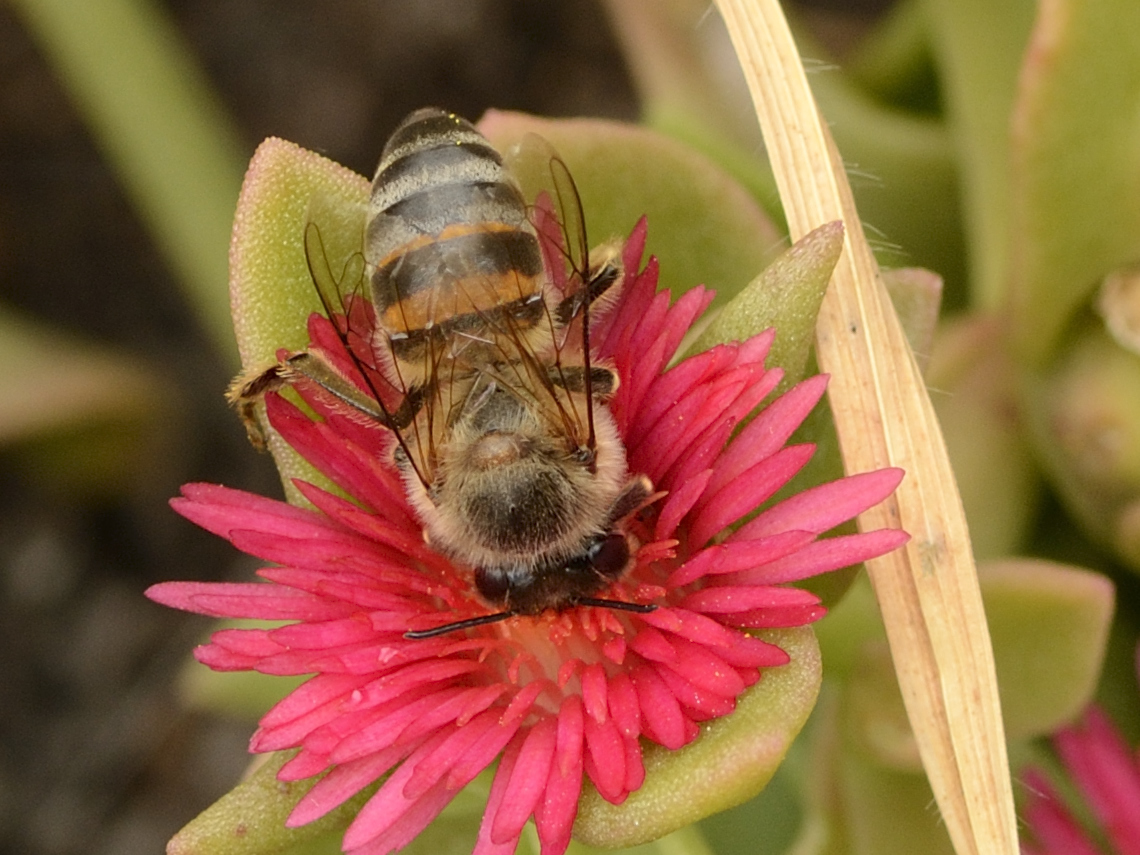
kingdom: Animalia
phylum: Arthropoda
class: Insecta
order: Hymenoptera
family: Apidae
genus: Apis
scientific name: Apis mellifera
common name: Honey bee
